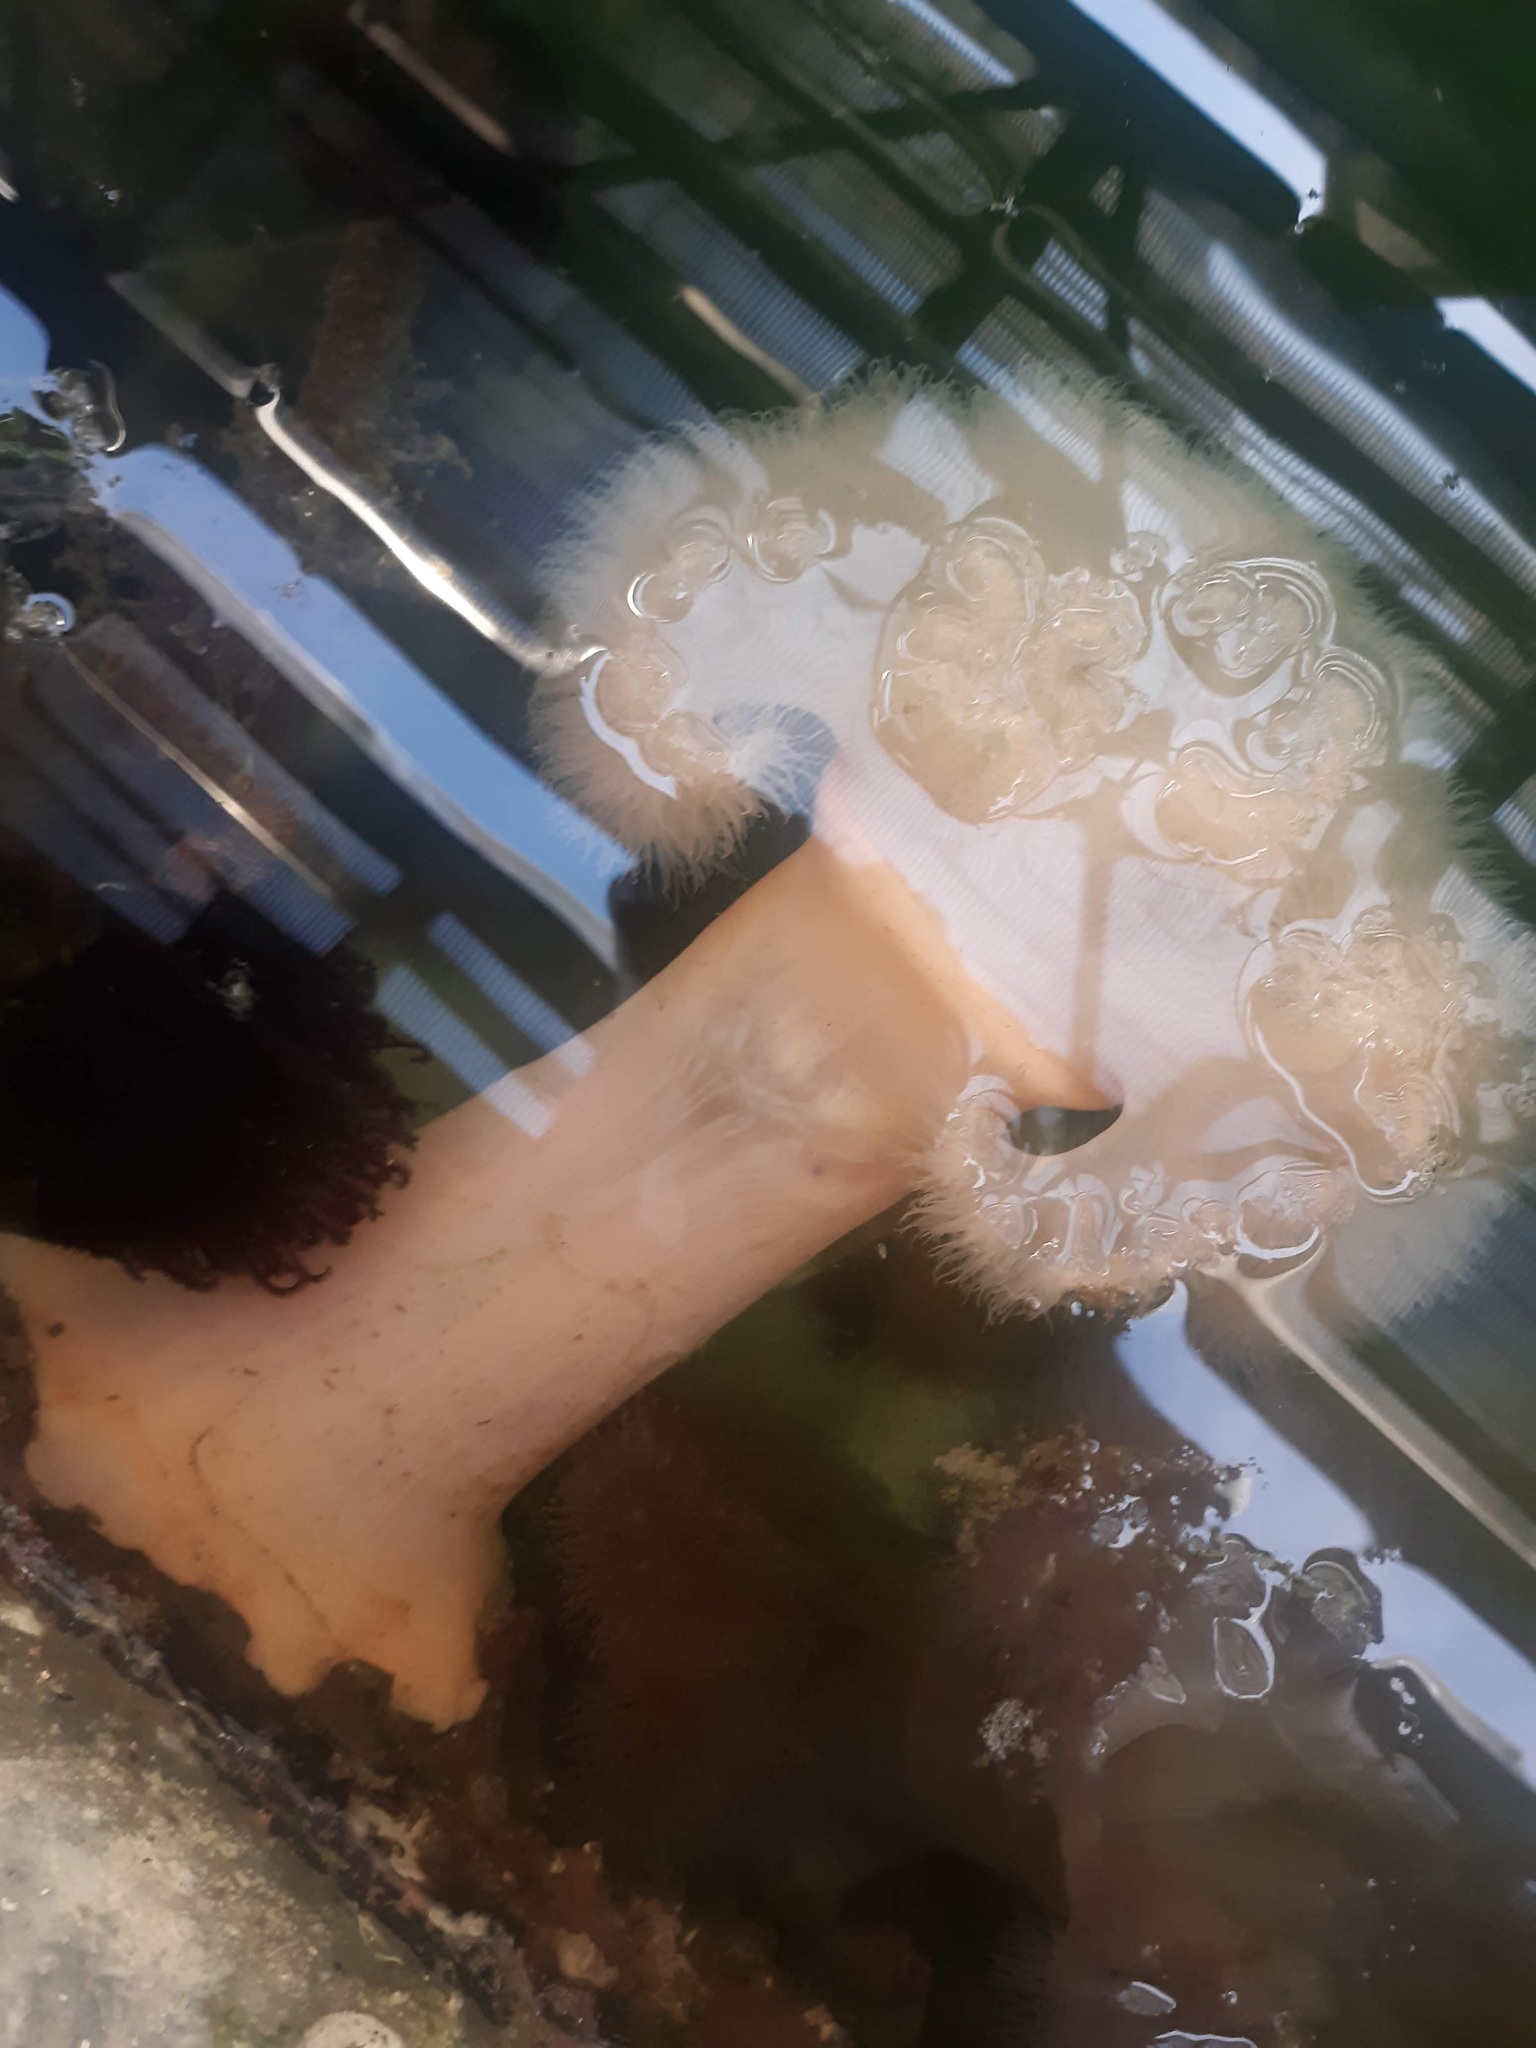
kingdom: Animalia
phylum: Cnidaria
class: Anthozoa
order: Actiniaria
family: Metridiidae
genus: Metridium
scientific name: Metridium senile
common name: Clonal plumose anemone
